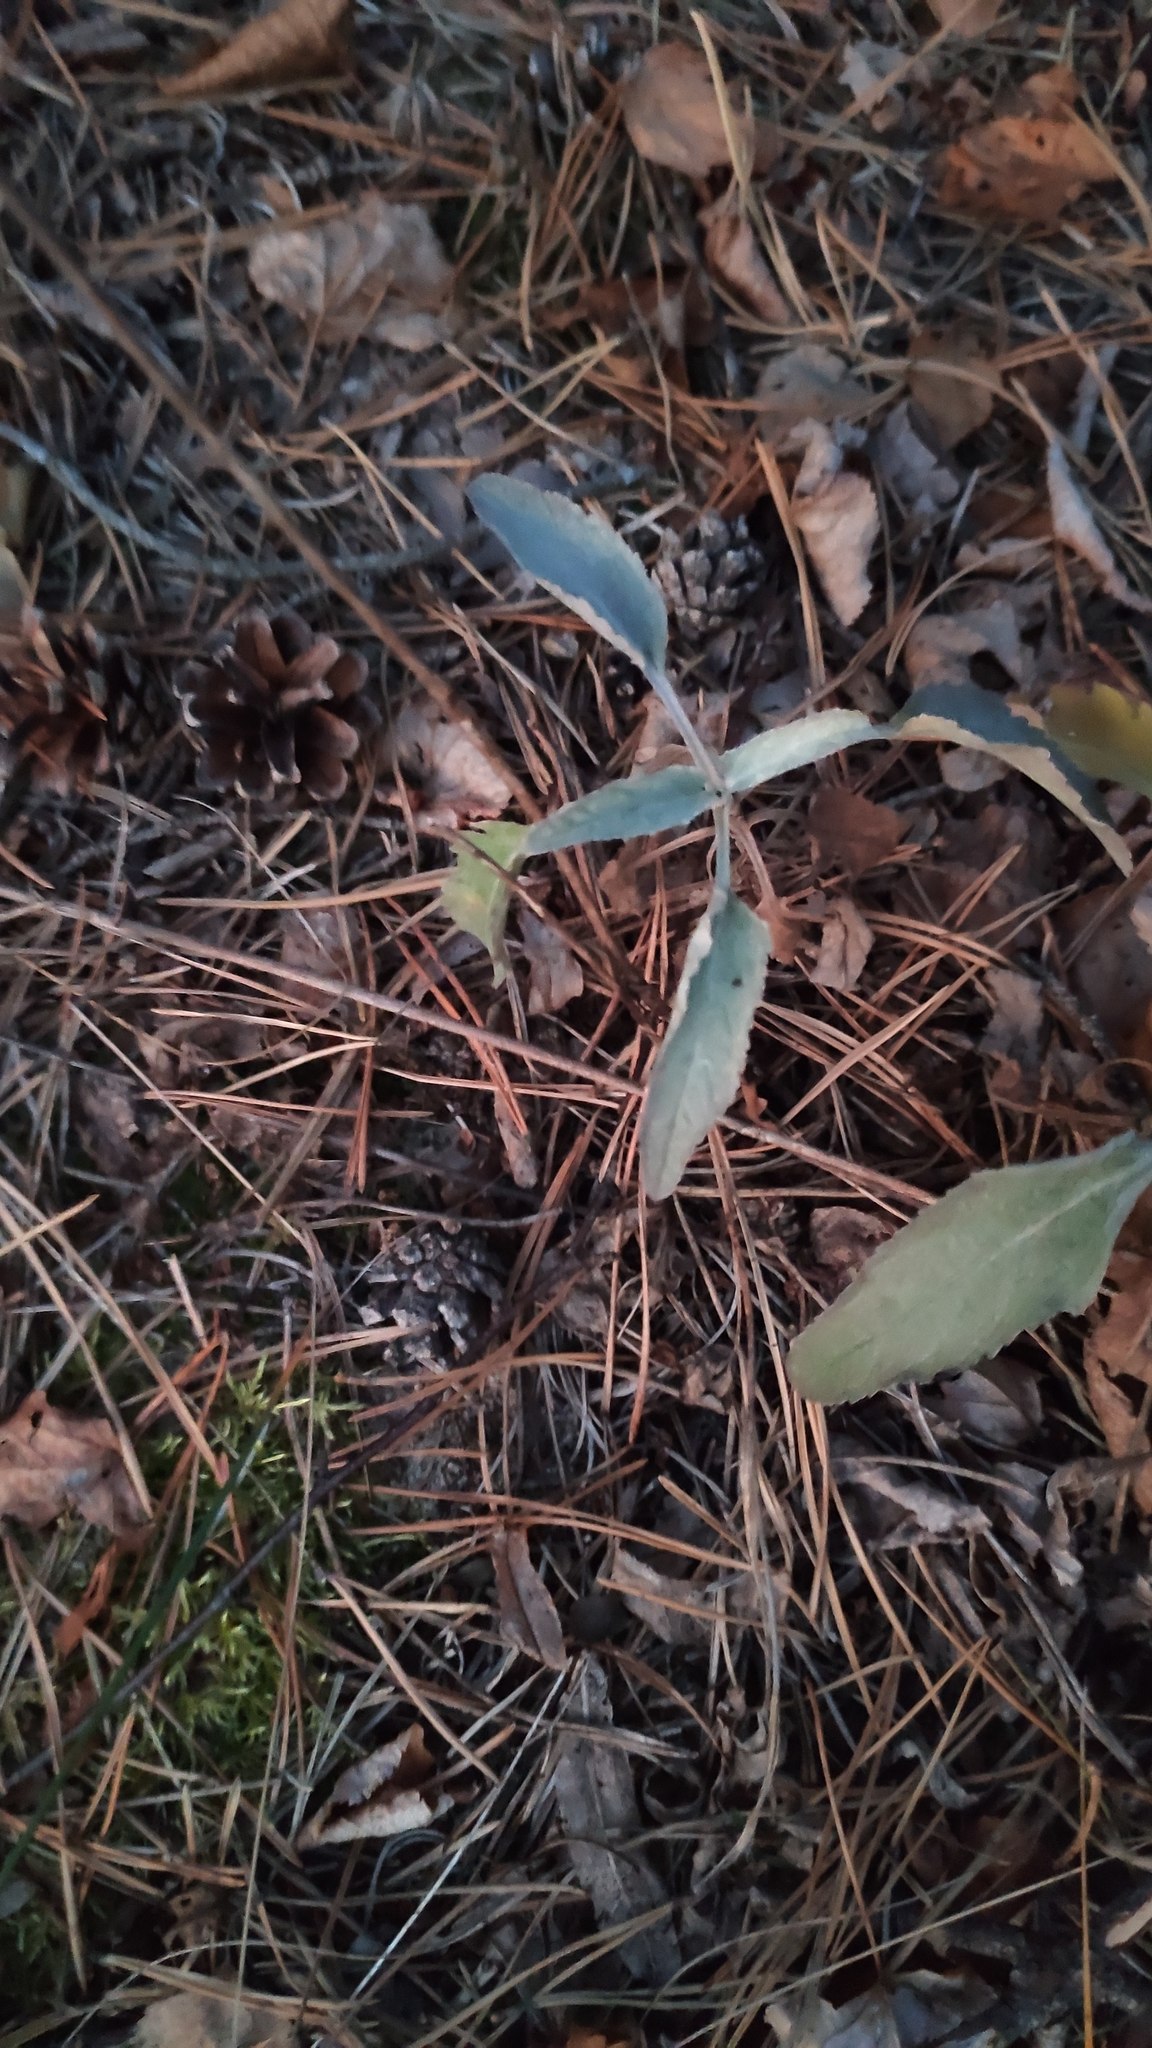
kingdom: Plantae
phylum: Tracheophyta
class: Magnoliopsida
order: Lamiales
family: Plantaginaceae
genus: Veronica
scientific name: Veronica incana
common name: Silver speedwell
